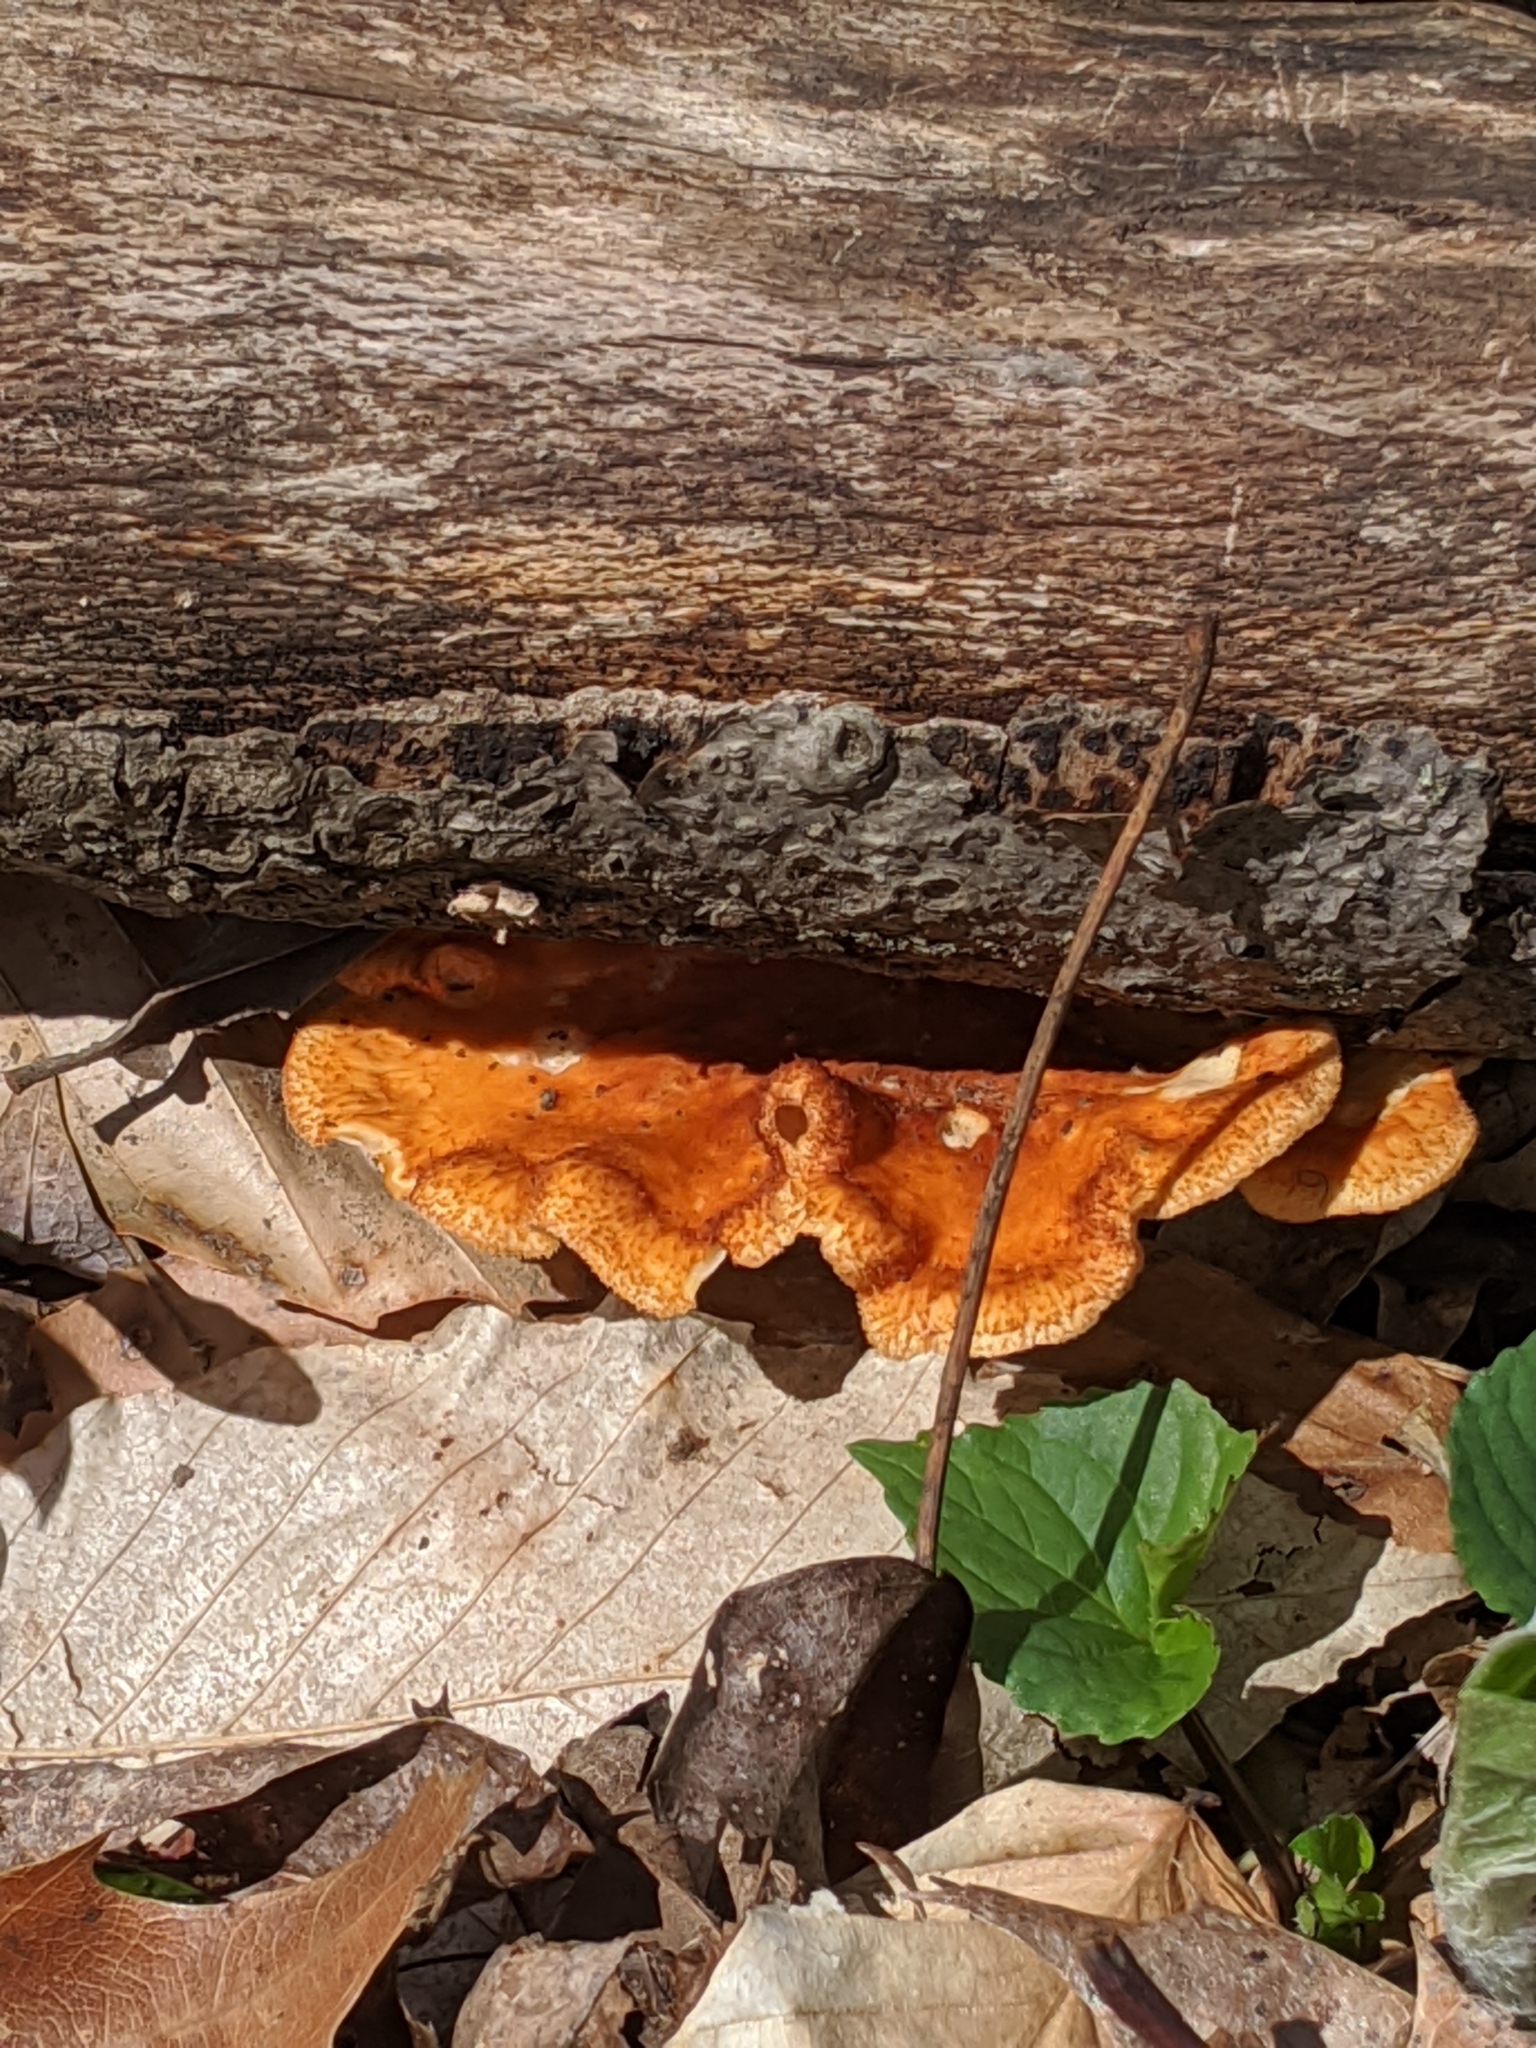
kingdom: Fungi
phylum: Basidiomycota
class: Agaricomycetes
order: Polyporales
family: Polyporaceae
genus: Neofavolus
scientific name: Neofavolus alveolaris
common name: Hexagonal-pored polypore
